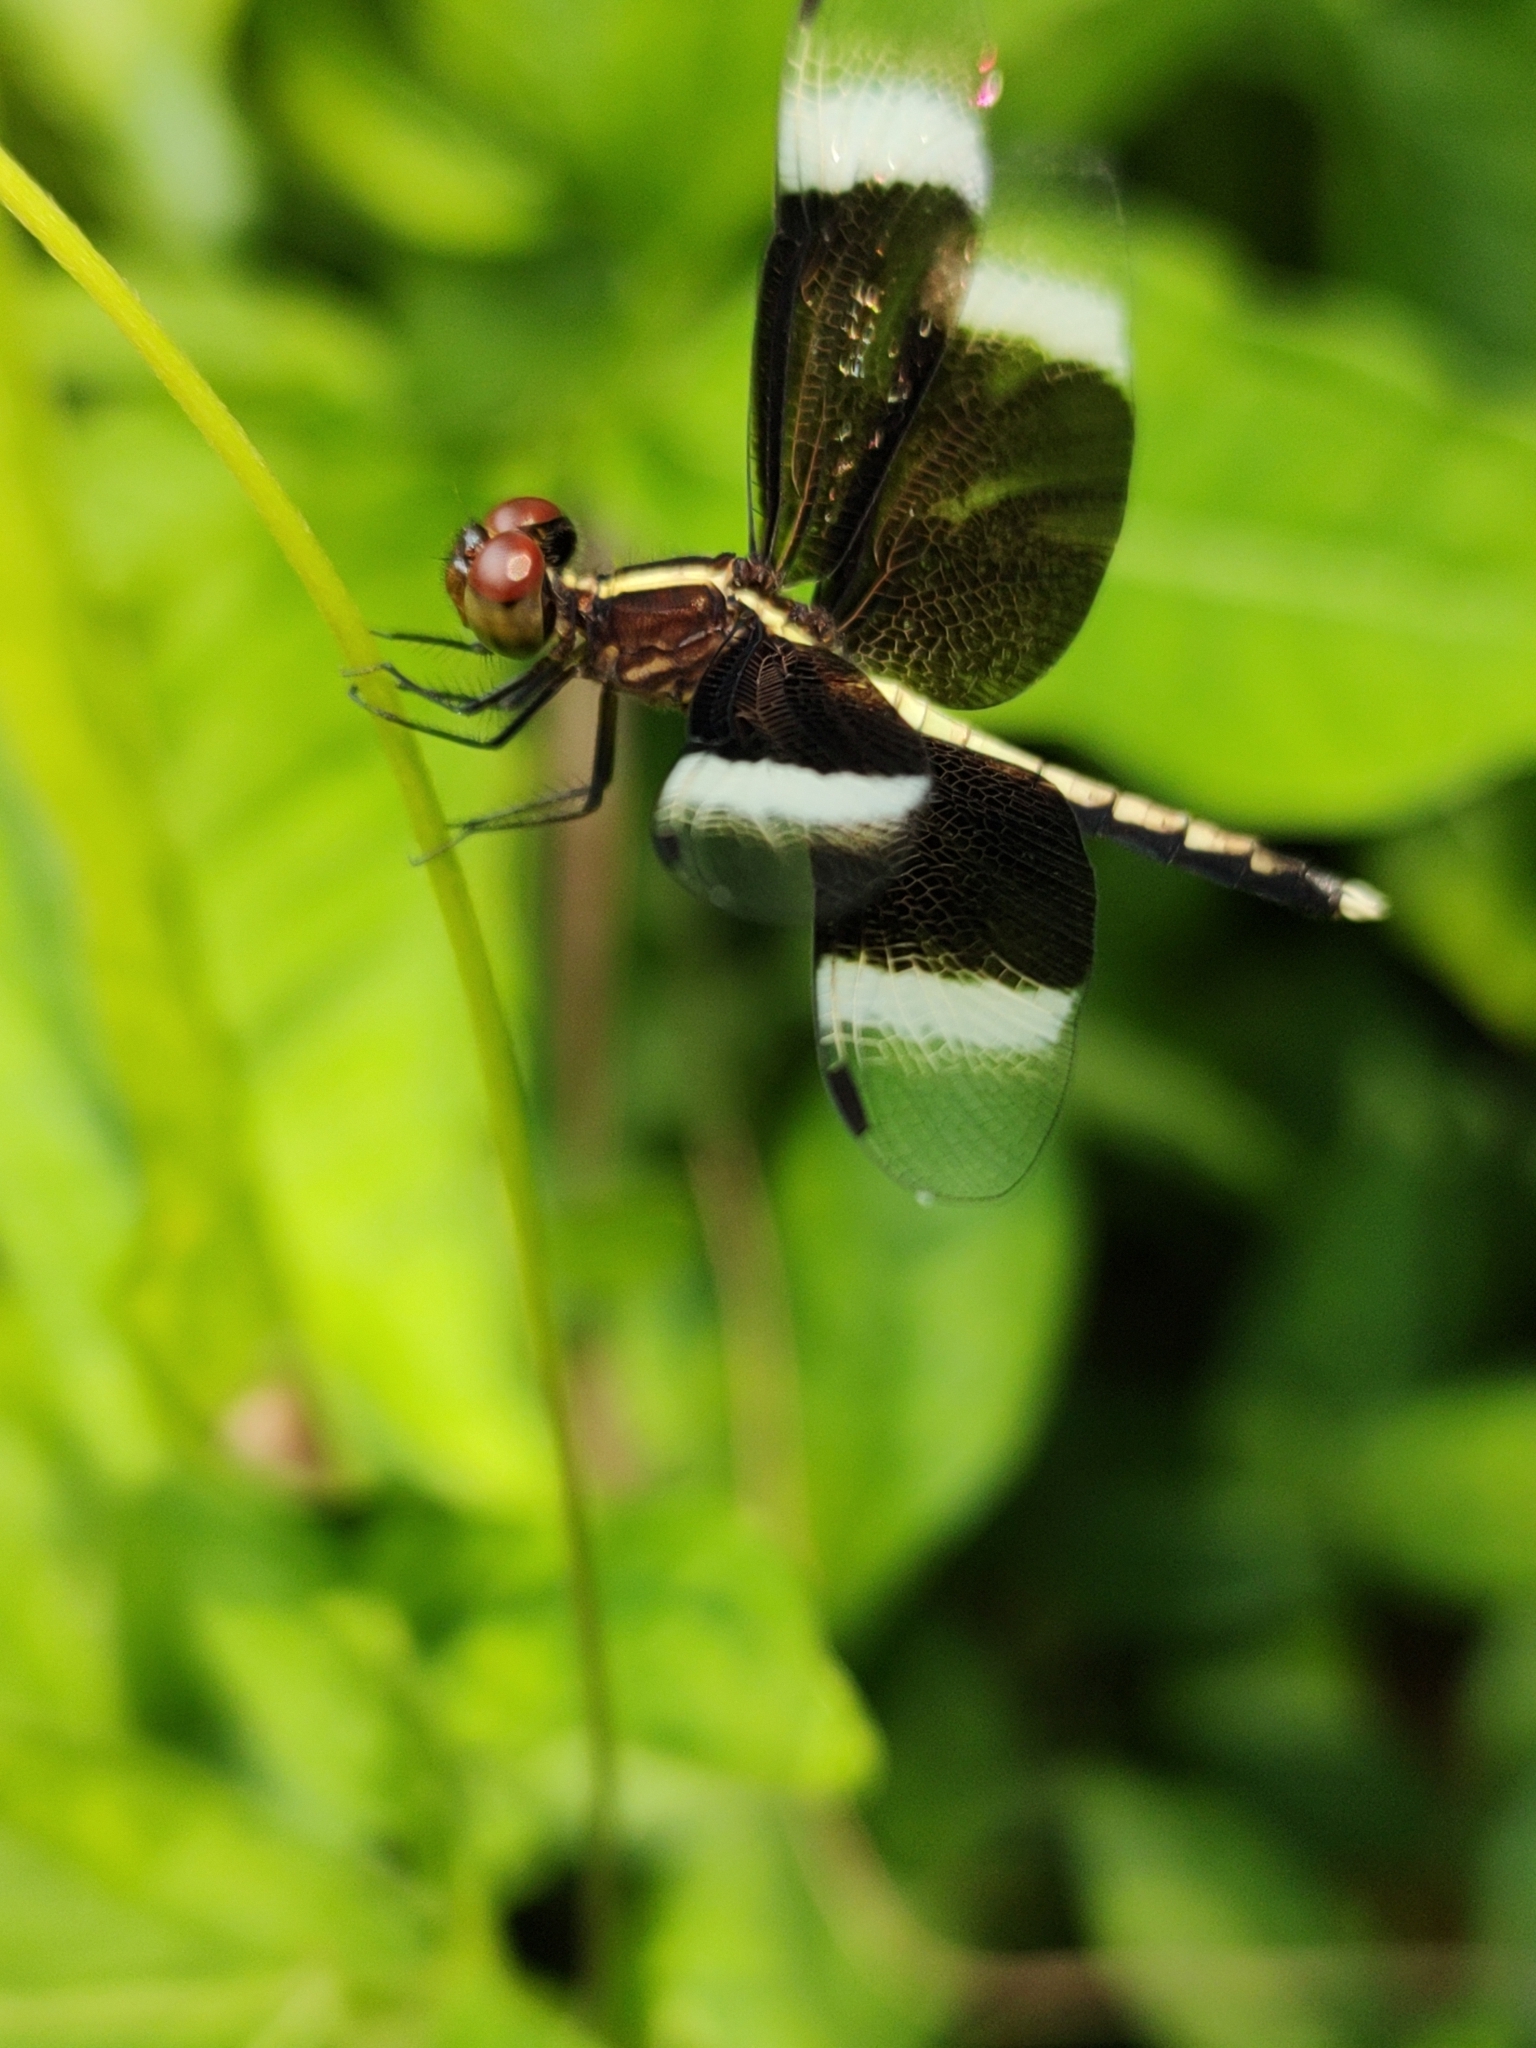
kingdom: Animalia
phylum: Arthropoda
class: Insecta
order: Odonata
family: Libellulidae
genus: Neurothemis
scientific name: Neurothemis tullia
